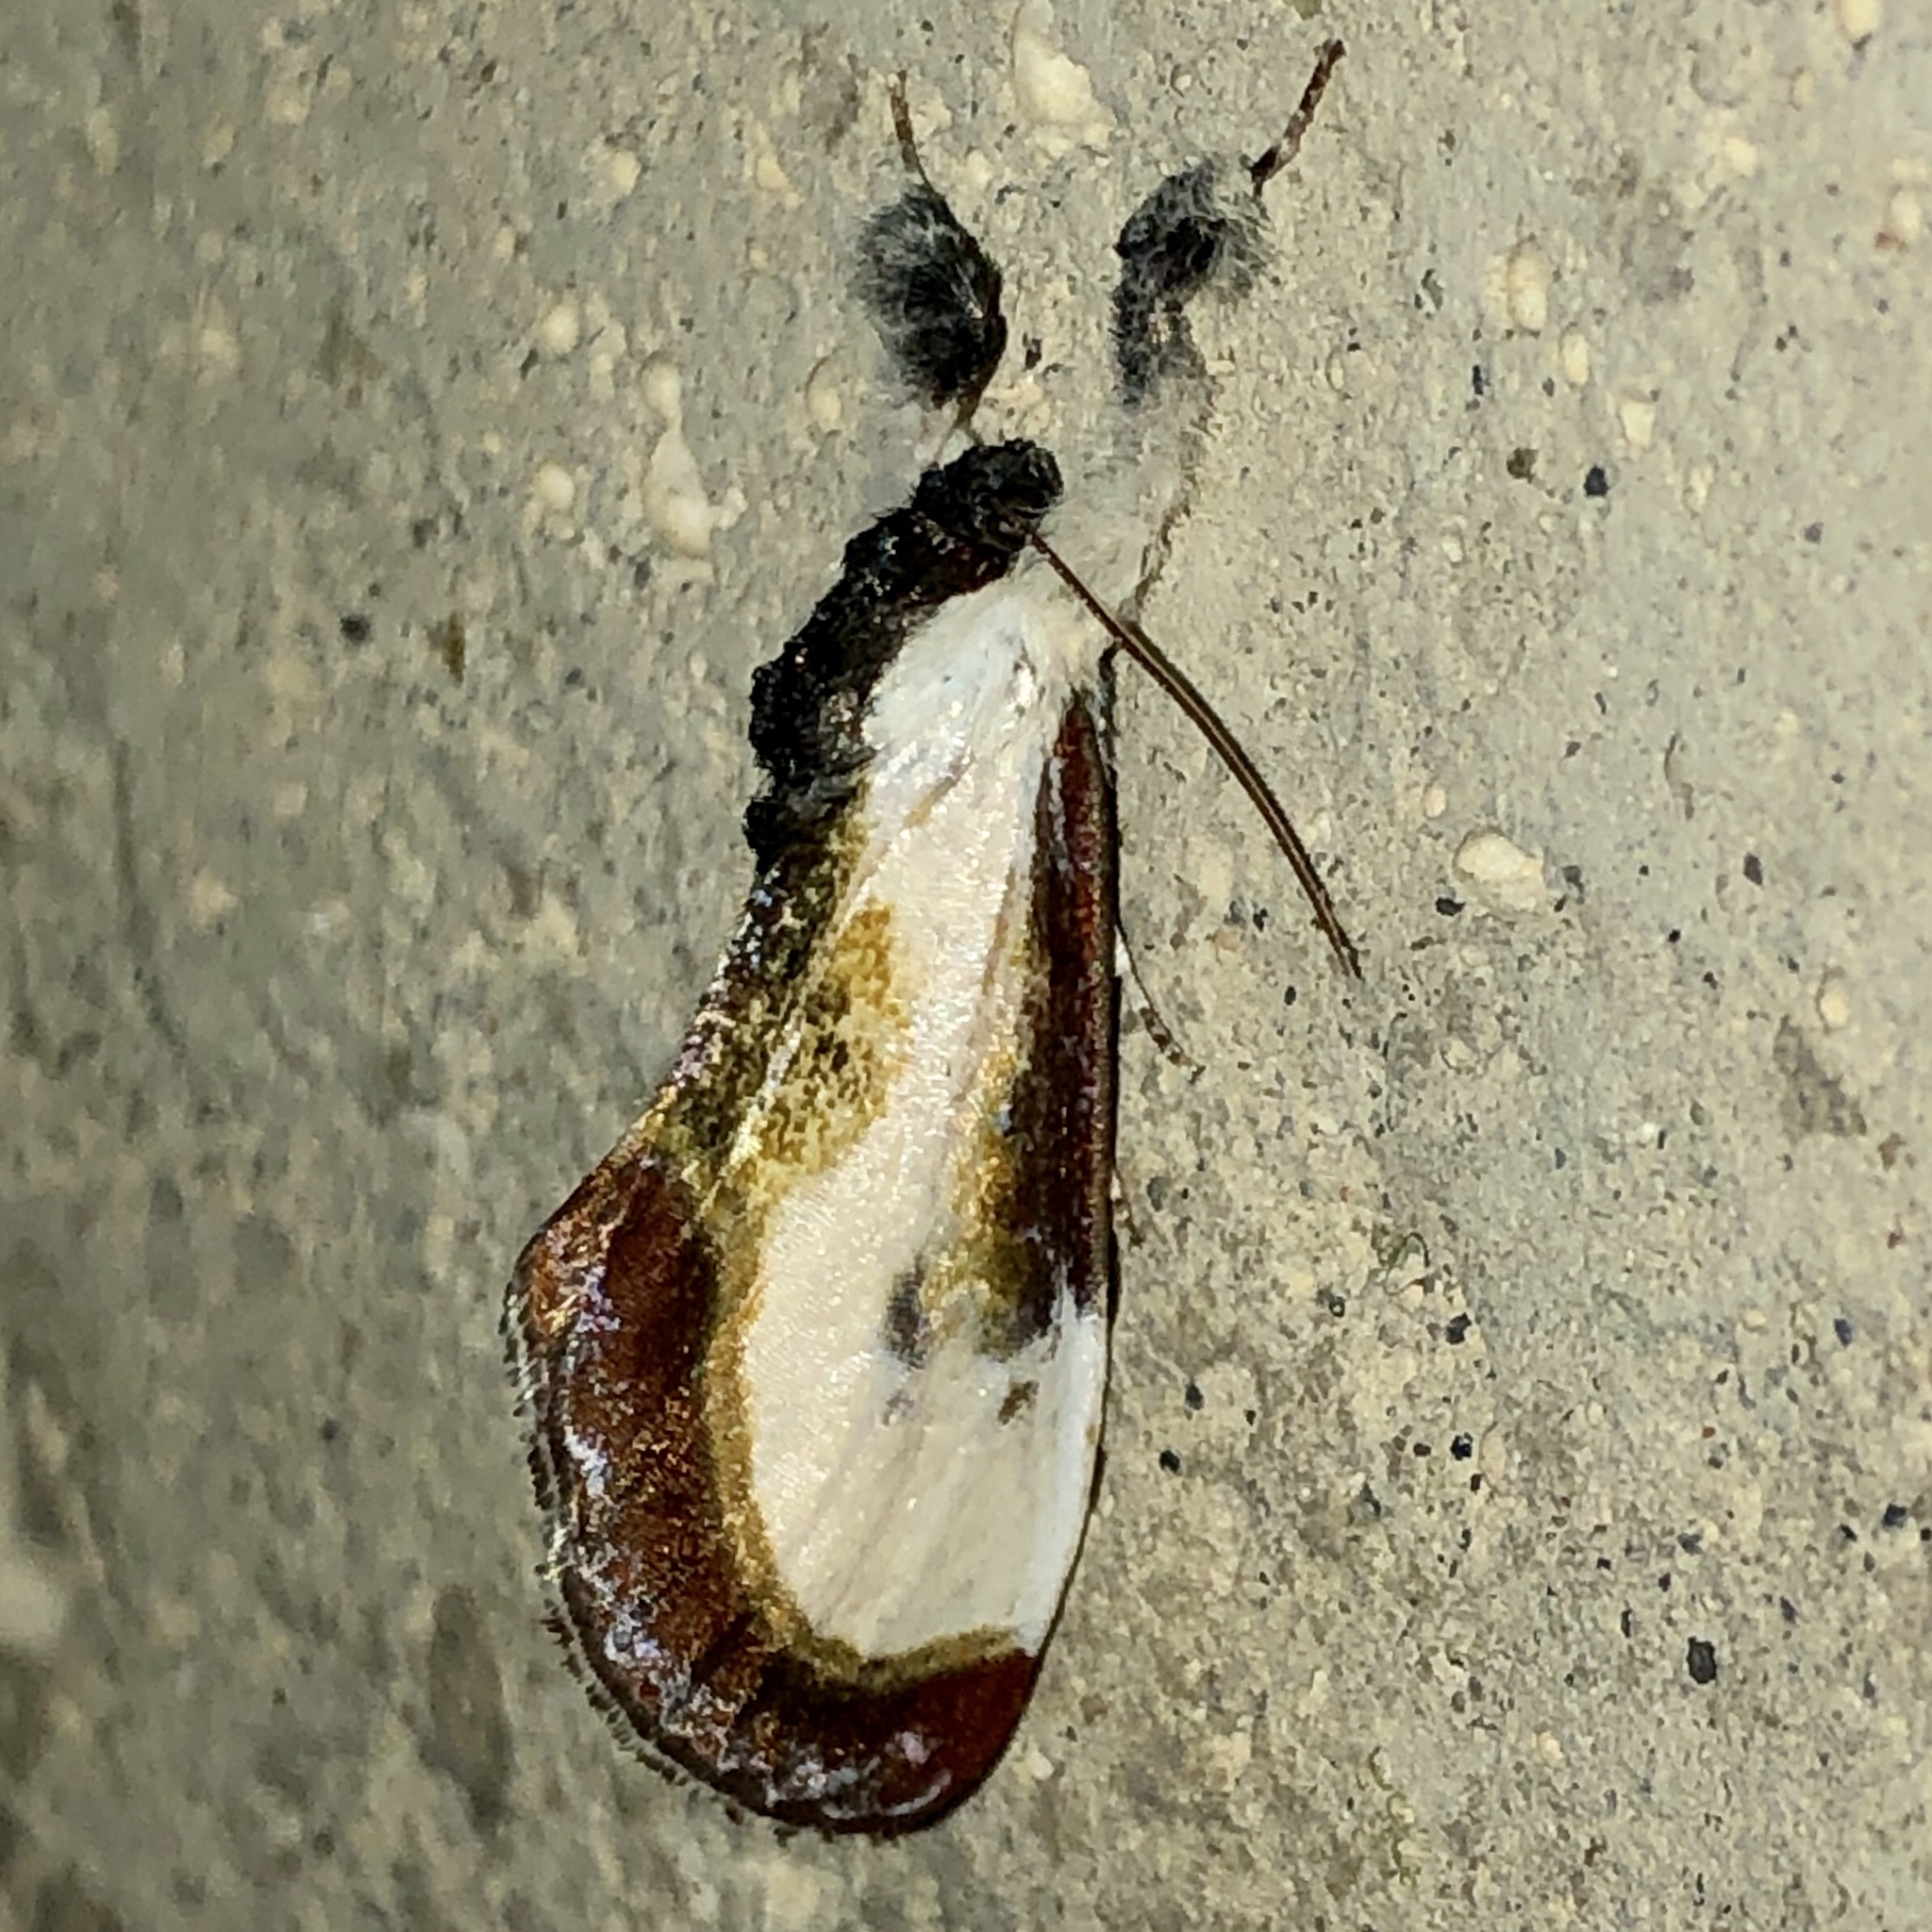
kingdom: Animalia
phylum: Arthropoda
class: Insecta
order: Lepidoptera
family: Noctuidae
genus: Eudryas
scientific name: Eudryas grata
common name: Beautiful wood-nymph
